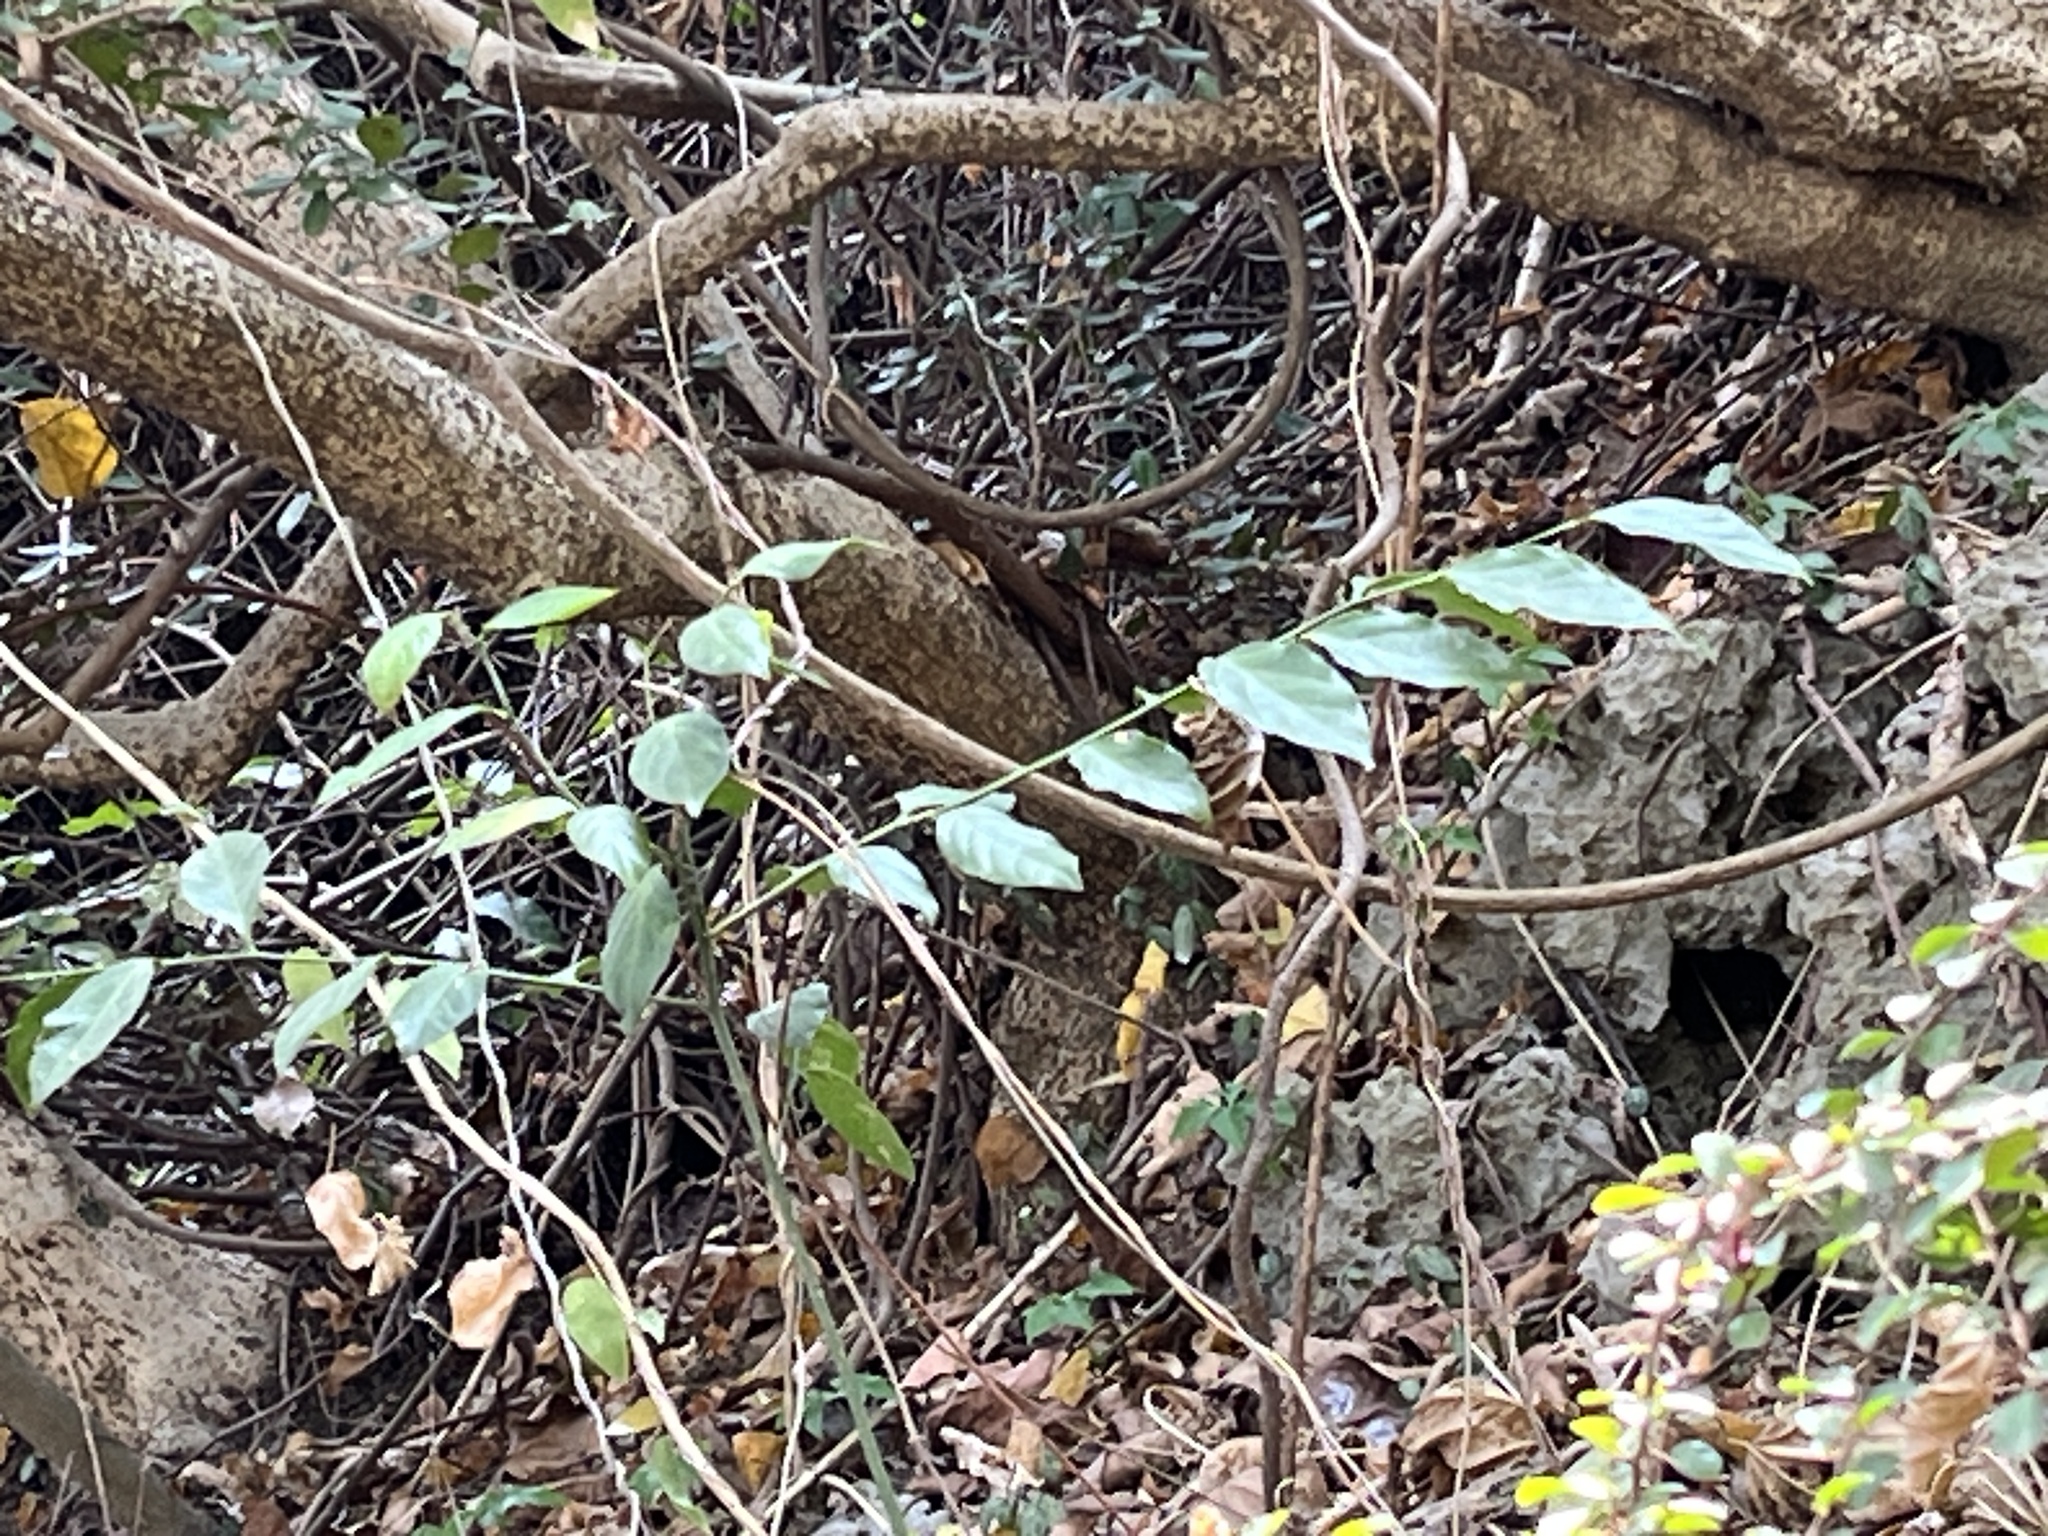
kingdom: Plantae
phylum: Tracheophyta
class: Magnoliopsida
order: Santalales
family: Opiliaceae
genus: Champereia
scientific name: Champereia manillana
